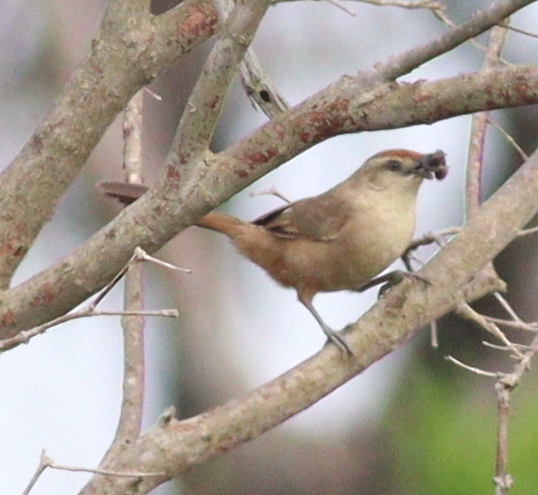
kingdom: Animalia
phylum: Chordata
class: Aves
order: Passeriformes
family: Furnariidae
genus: Phacellodomus
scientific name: Phacellodomus rufifrons
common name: Rufous-fronted thornbird
